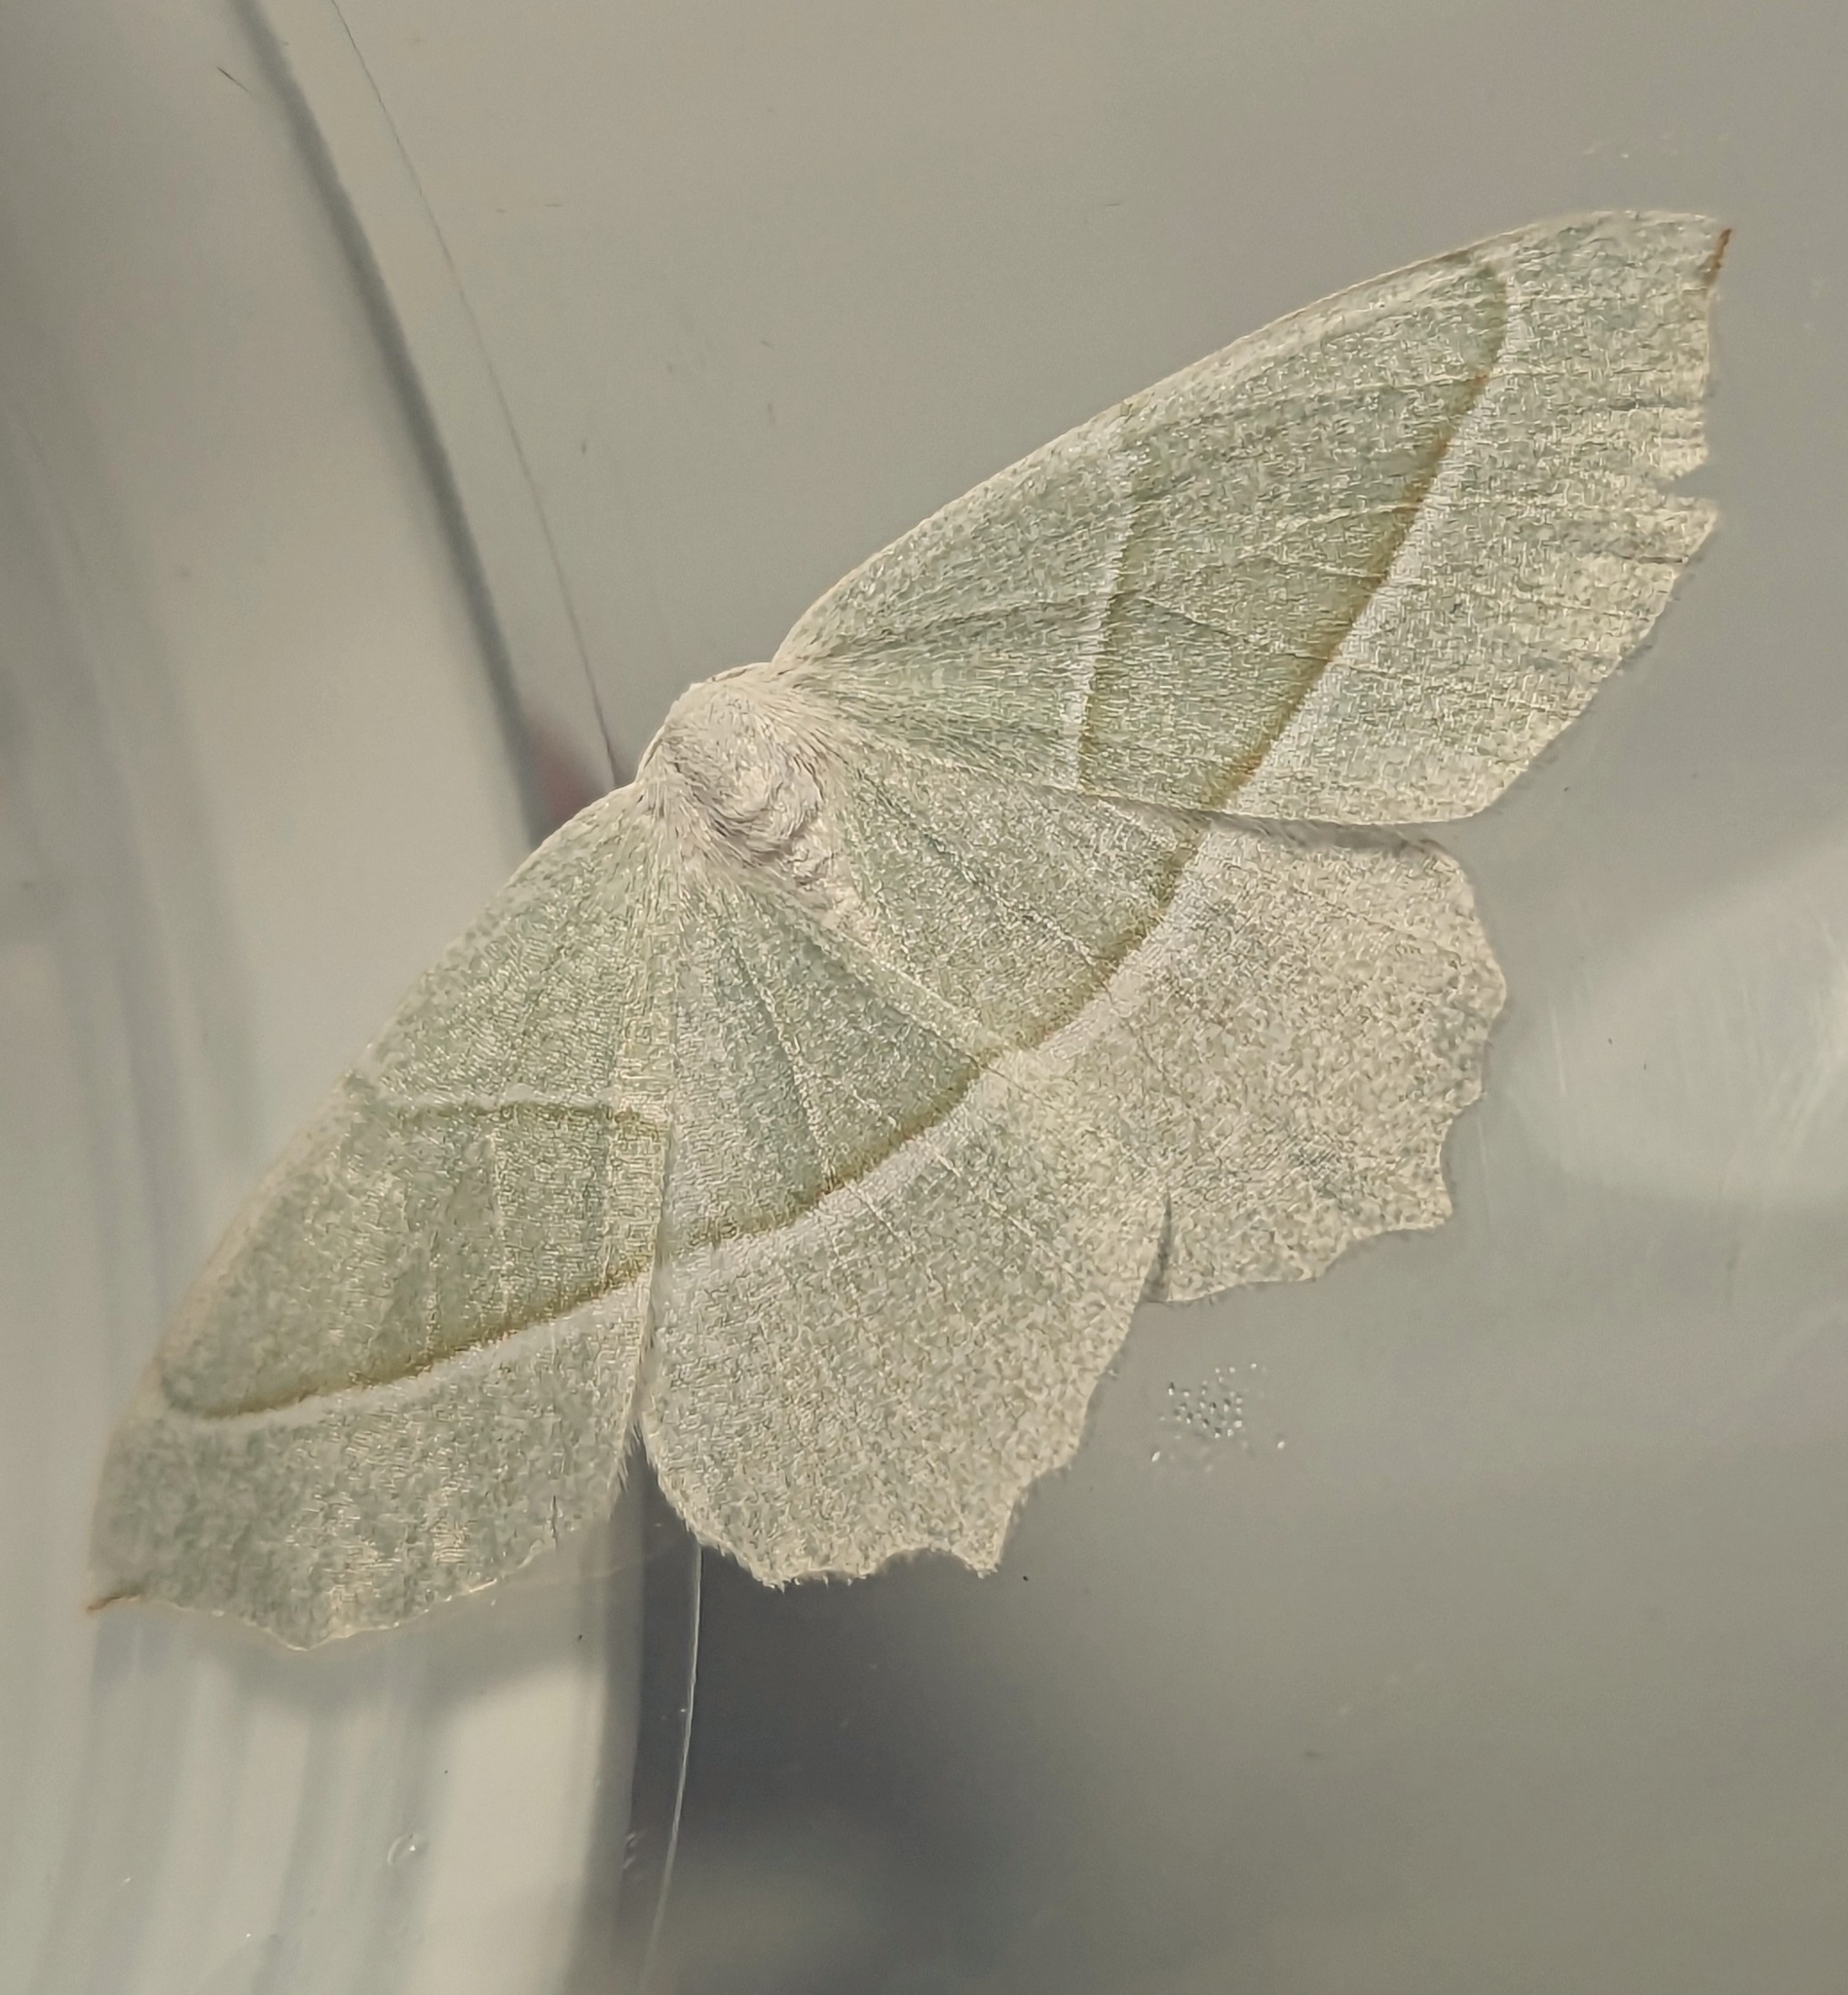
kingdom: Animalia
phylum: Arthropoda
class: Insecta
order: Lepidoptera
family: Geometridae
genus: Campaea
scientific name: Campaea margaritaria
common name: Light emerald
